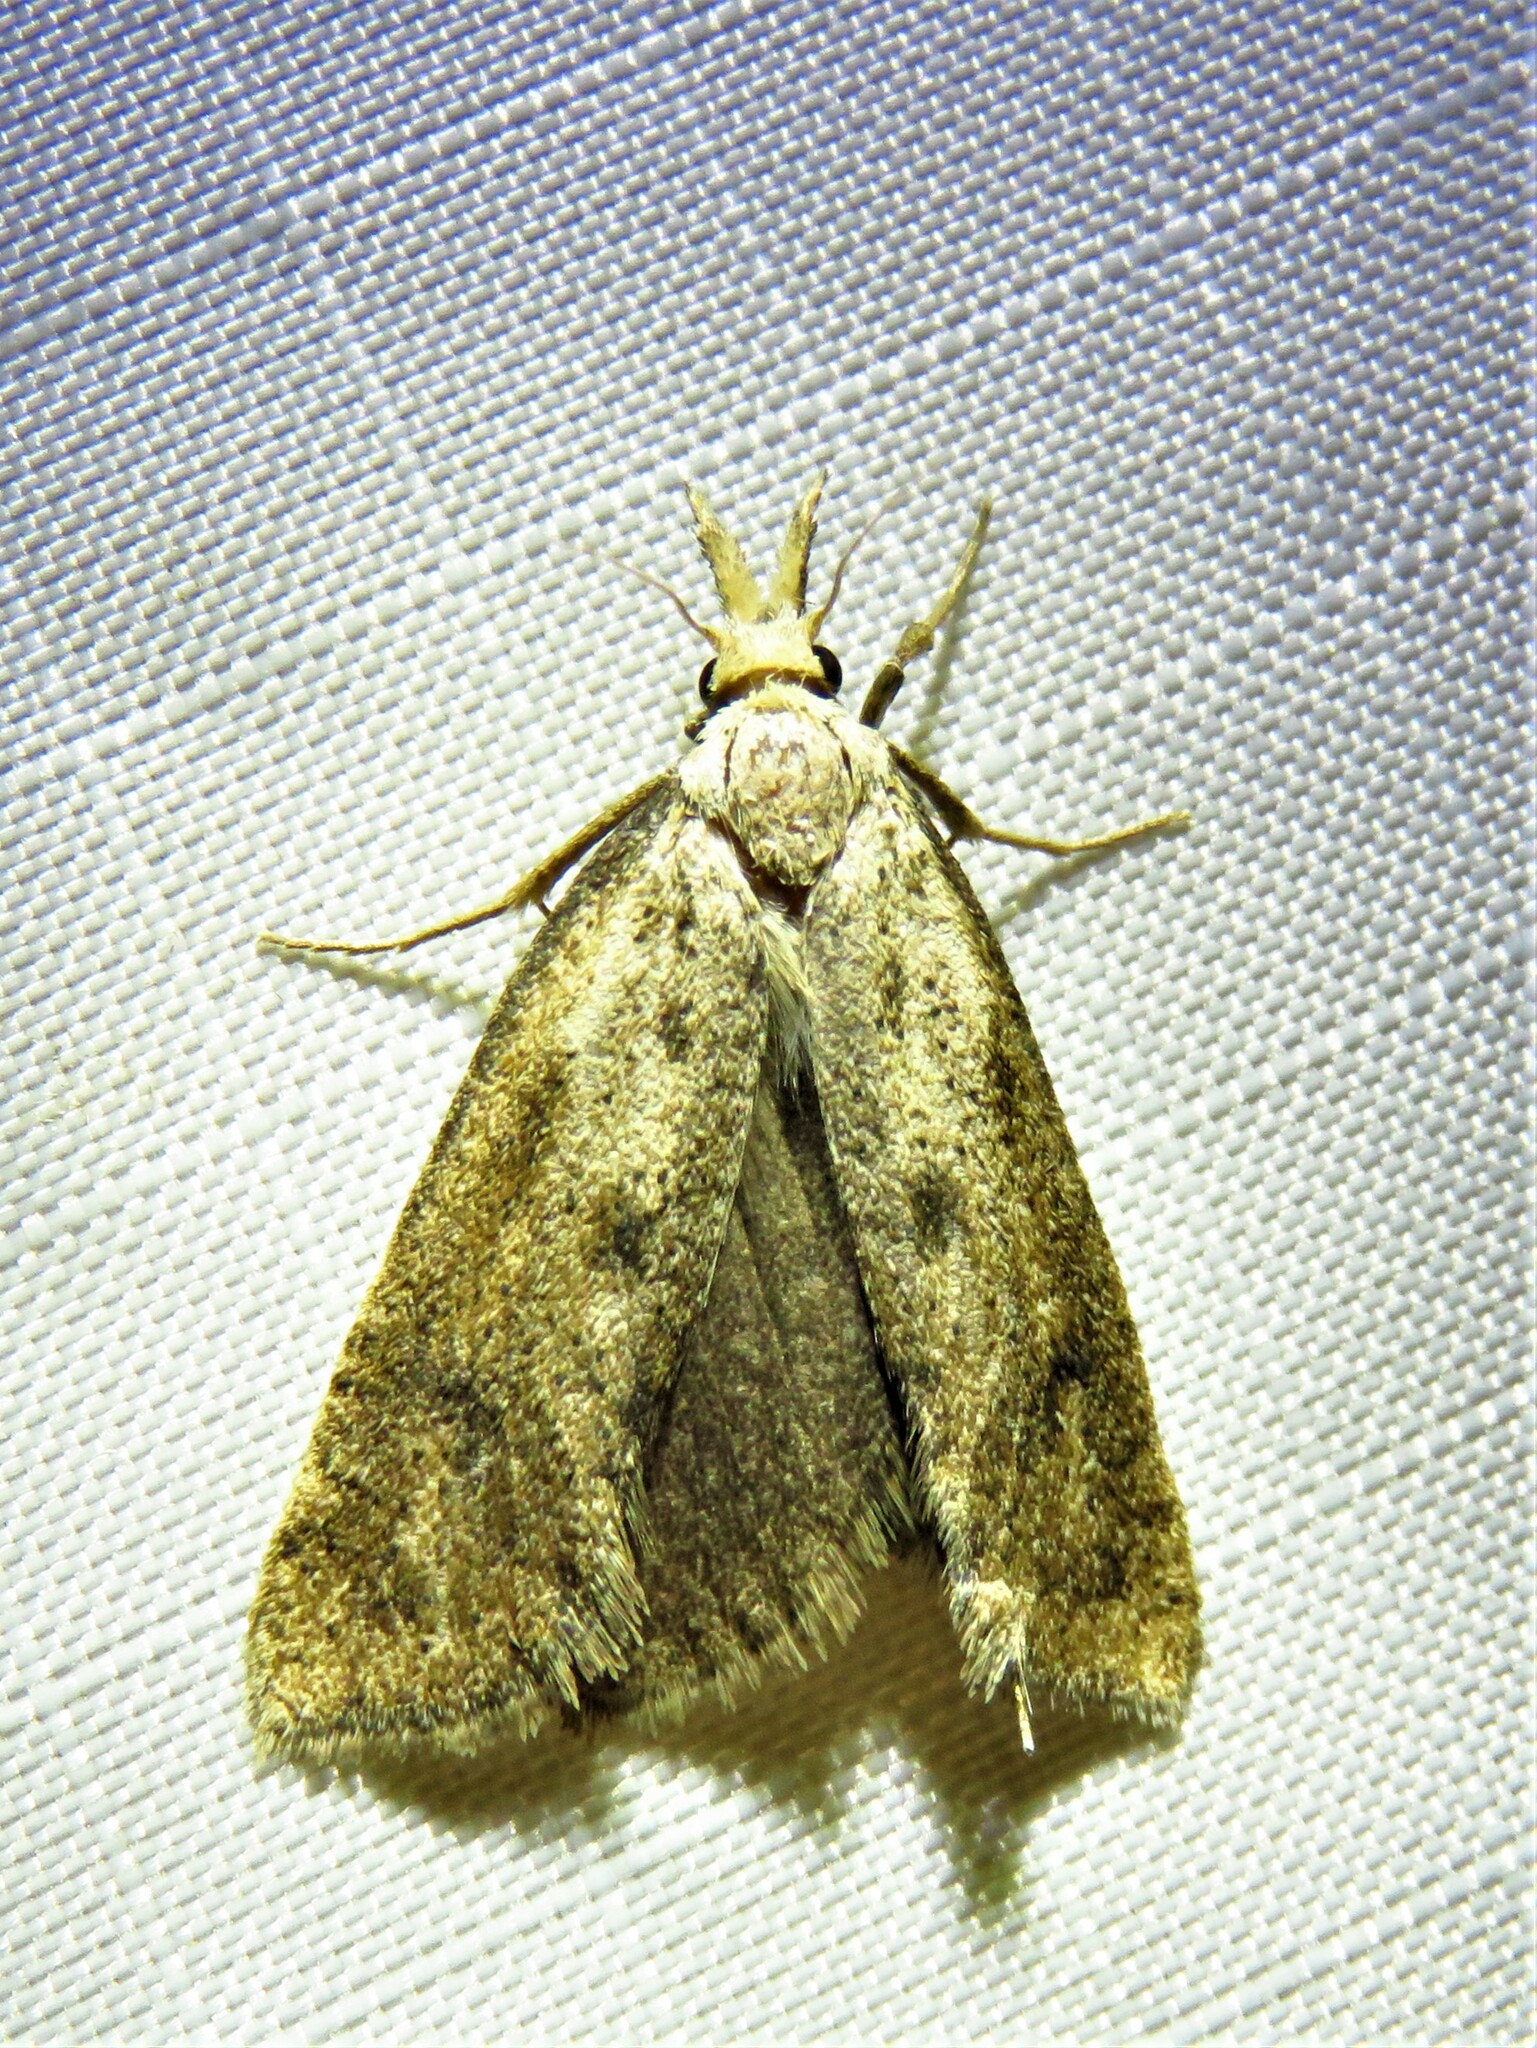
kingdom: Animalia
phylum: Arthropoda
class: Insecta
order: Lepidoptera
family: Tineidae
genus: Acrolophus
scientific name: Acrolophus mortipennella
